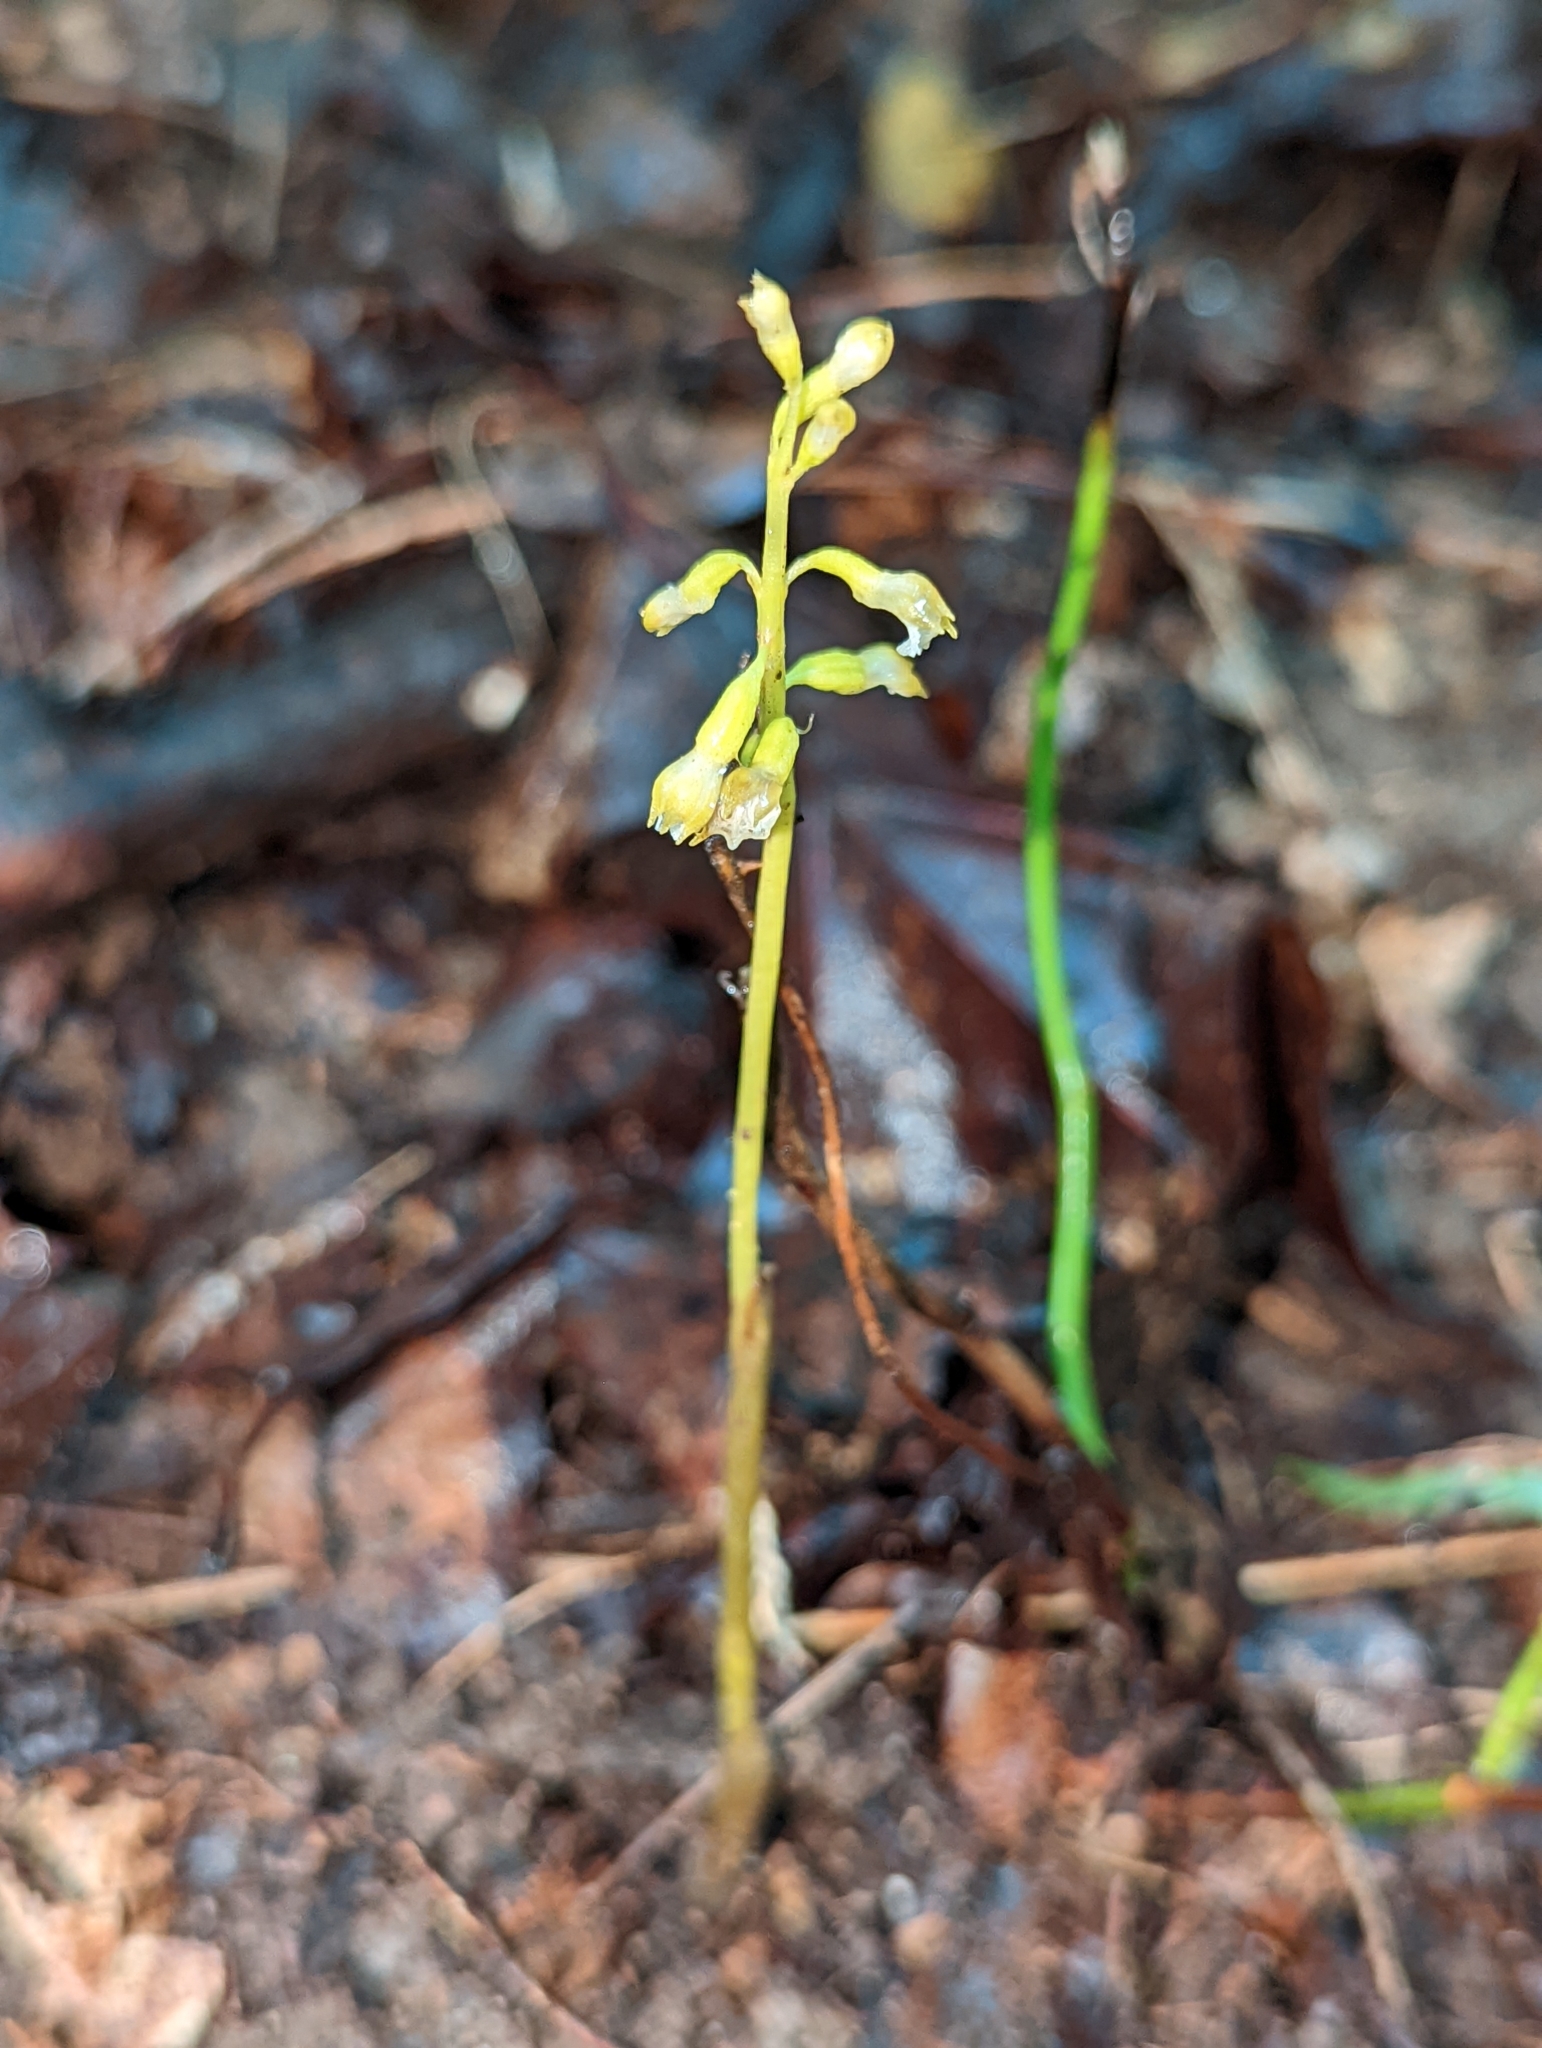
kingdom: Plantae
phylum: Tracheophyta
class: Liliopsida
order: Asparagales
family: Orchidaceae
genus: Corallorhiza
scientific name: Corallorhiza odontorhiza
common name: Autumn coralroot
